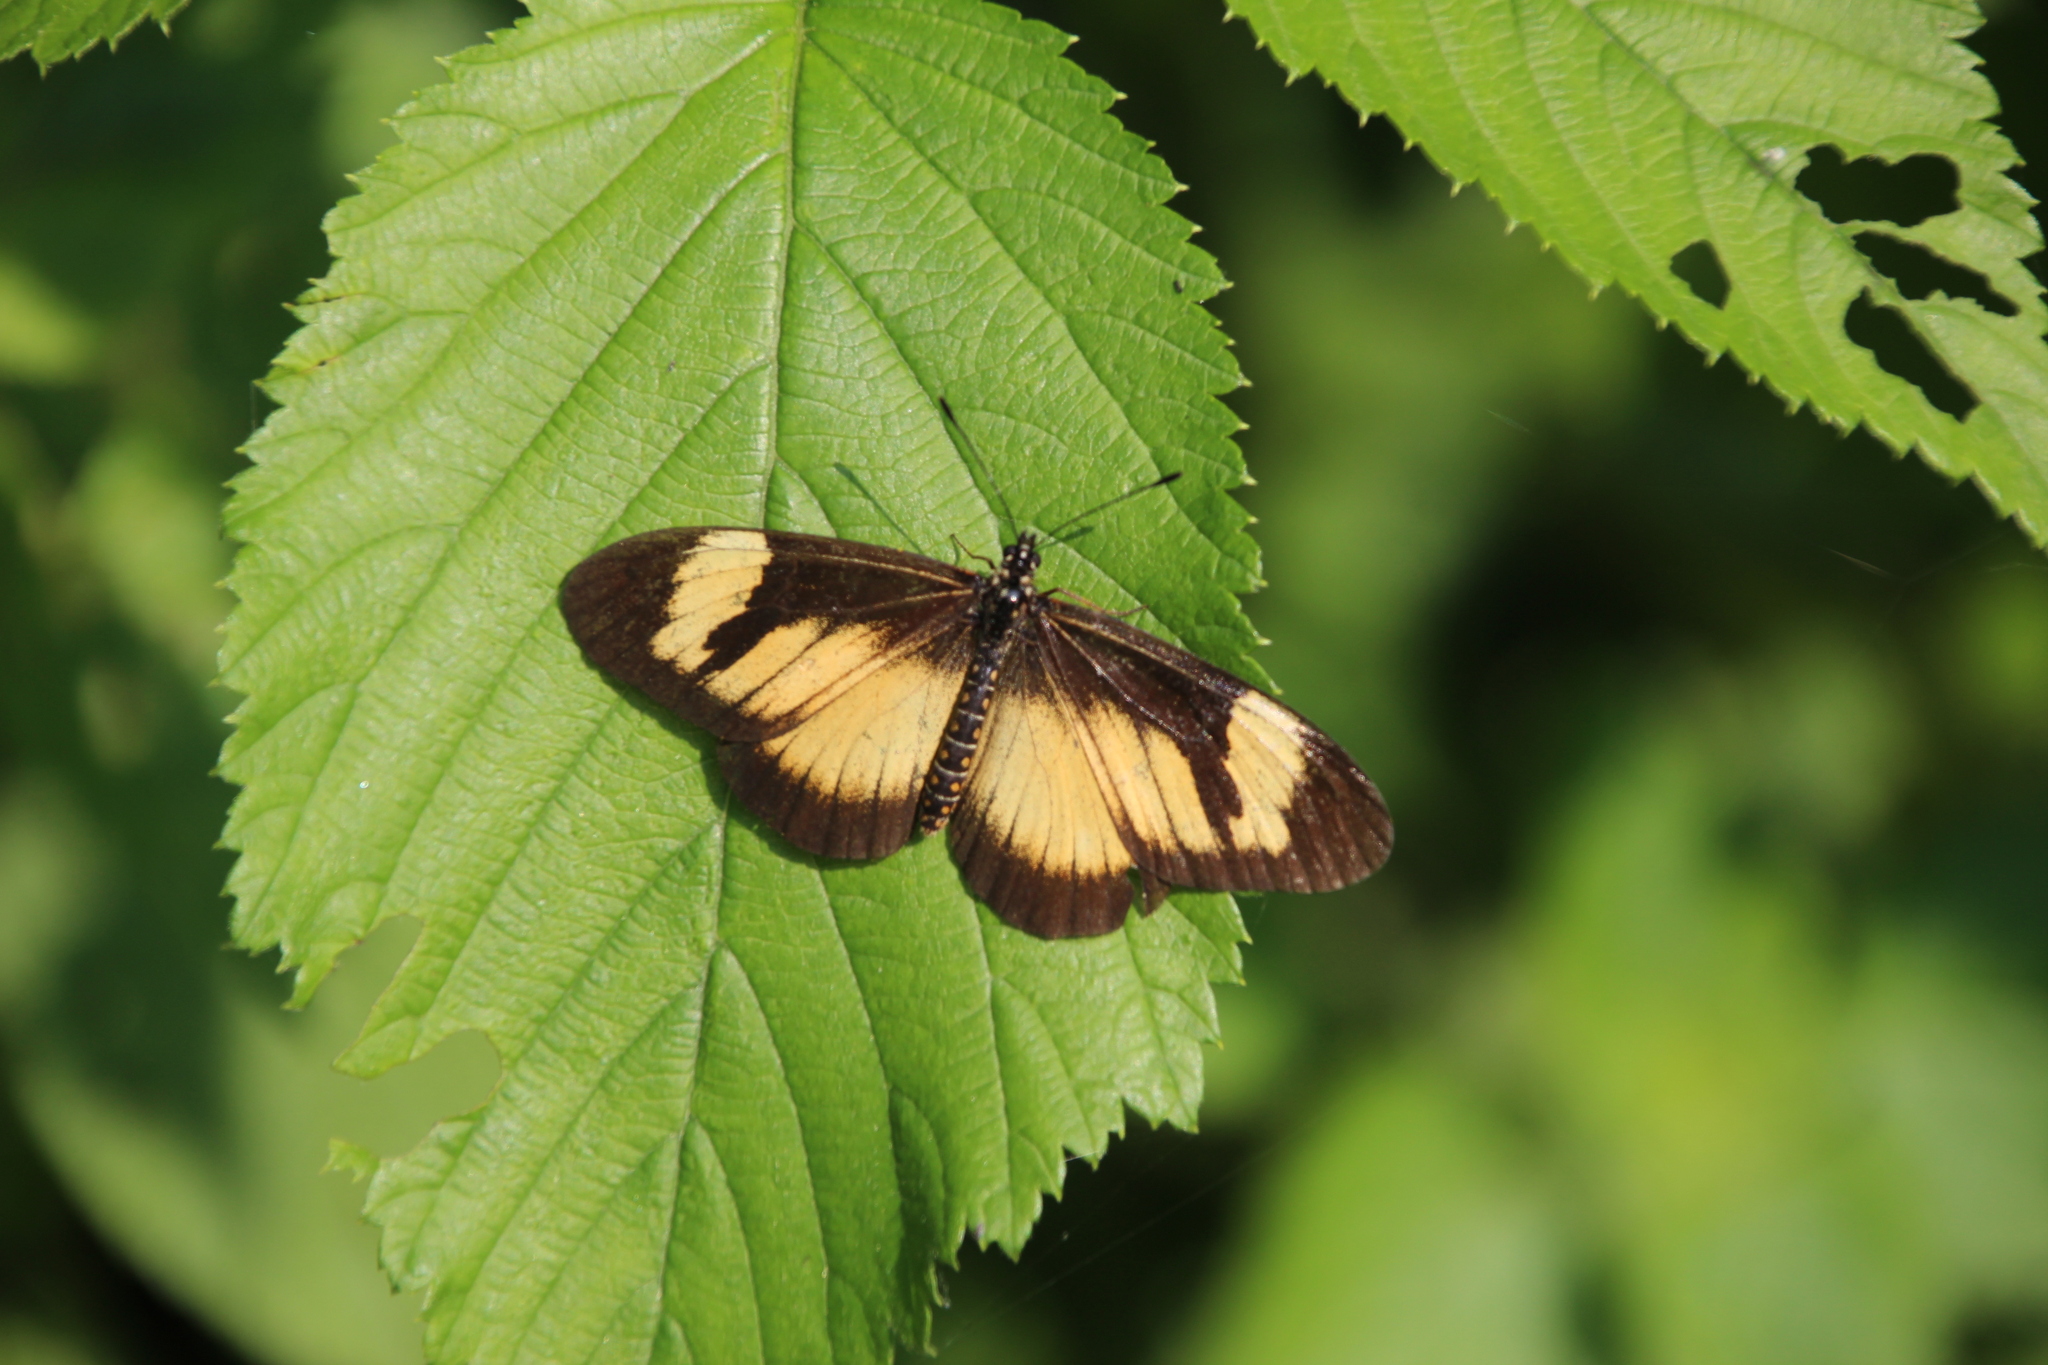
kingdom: Animalia
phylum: Arthropoda
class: Insecta
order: Lepidoptera
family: Nymphalidae
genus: Acraea
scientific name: Acraea
